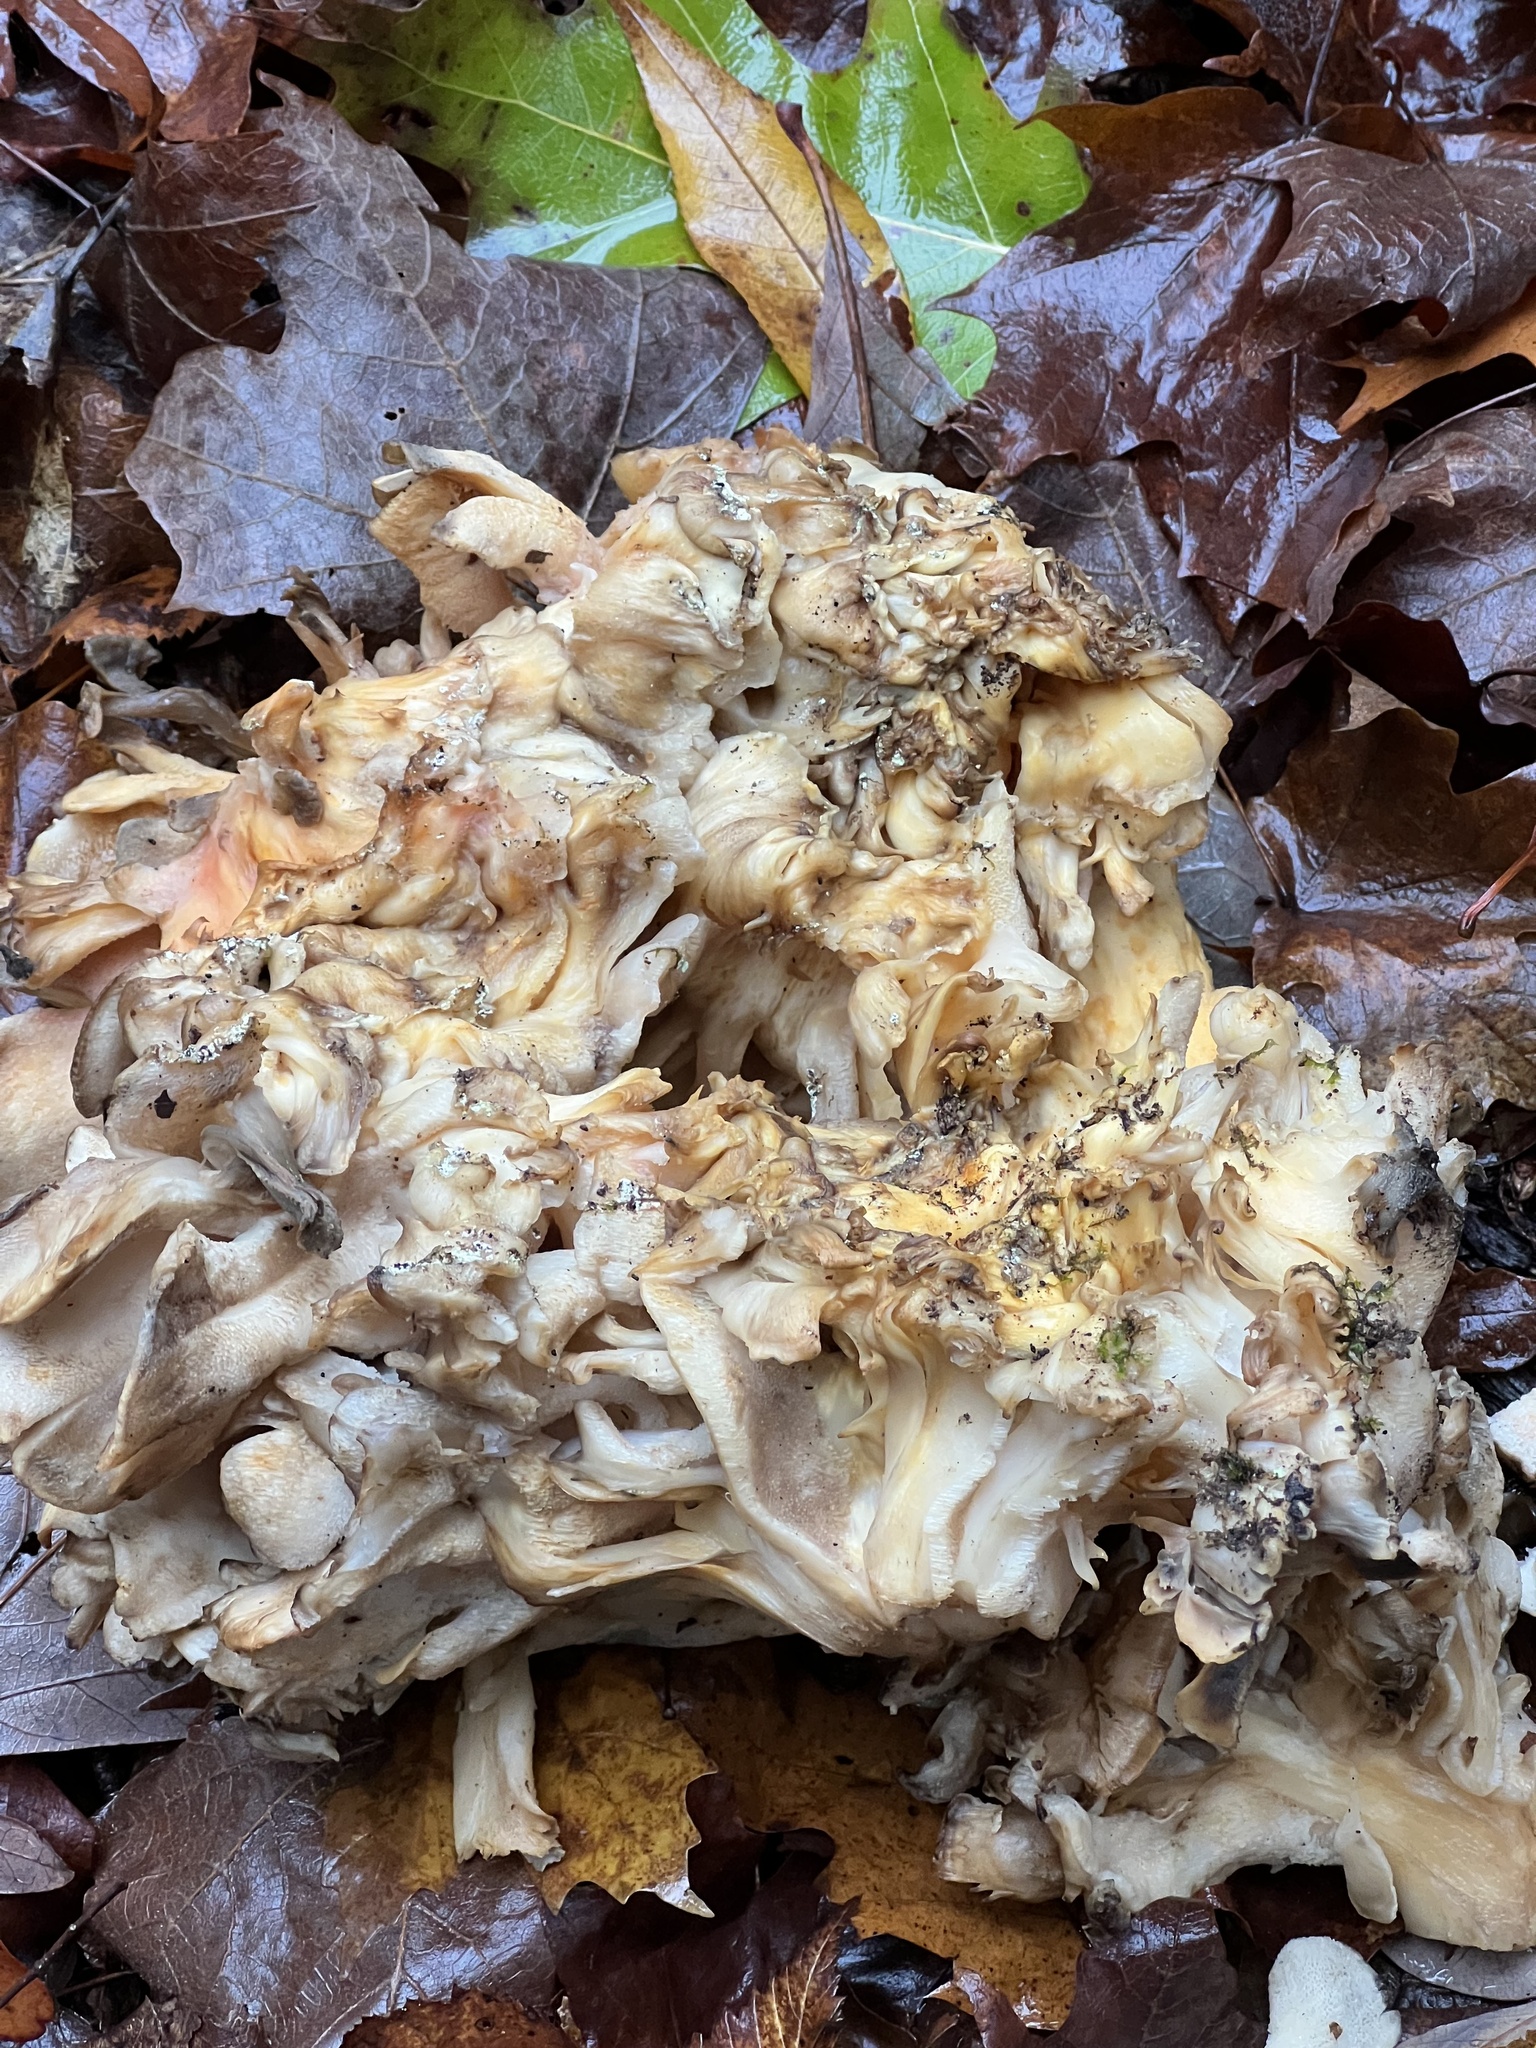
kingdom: Fungi
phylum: Basidiomycota
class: Agaricomycetes
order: Polyporales
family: Grifolaceae
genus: Grifola
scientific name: Grifola frondosa
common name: Hen of the woods
